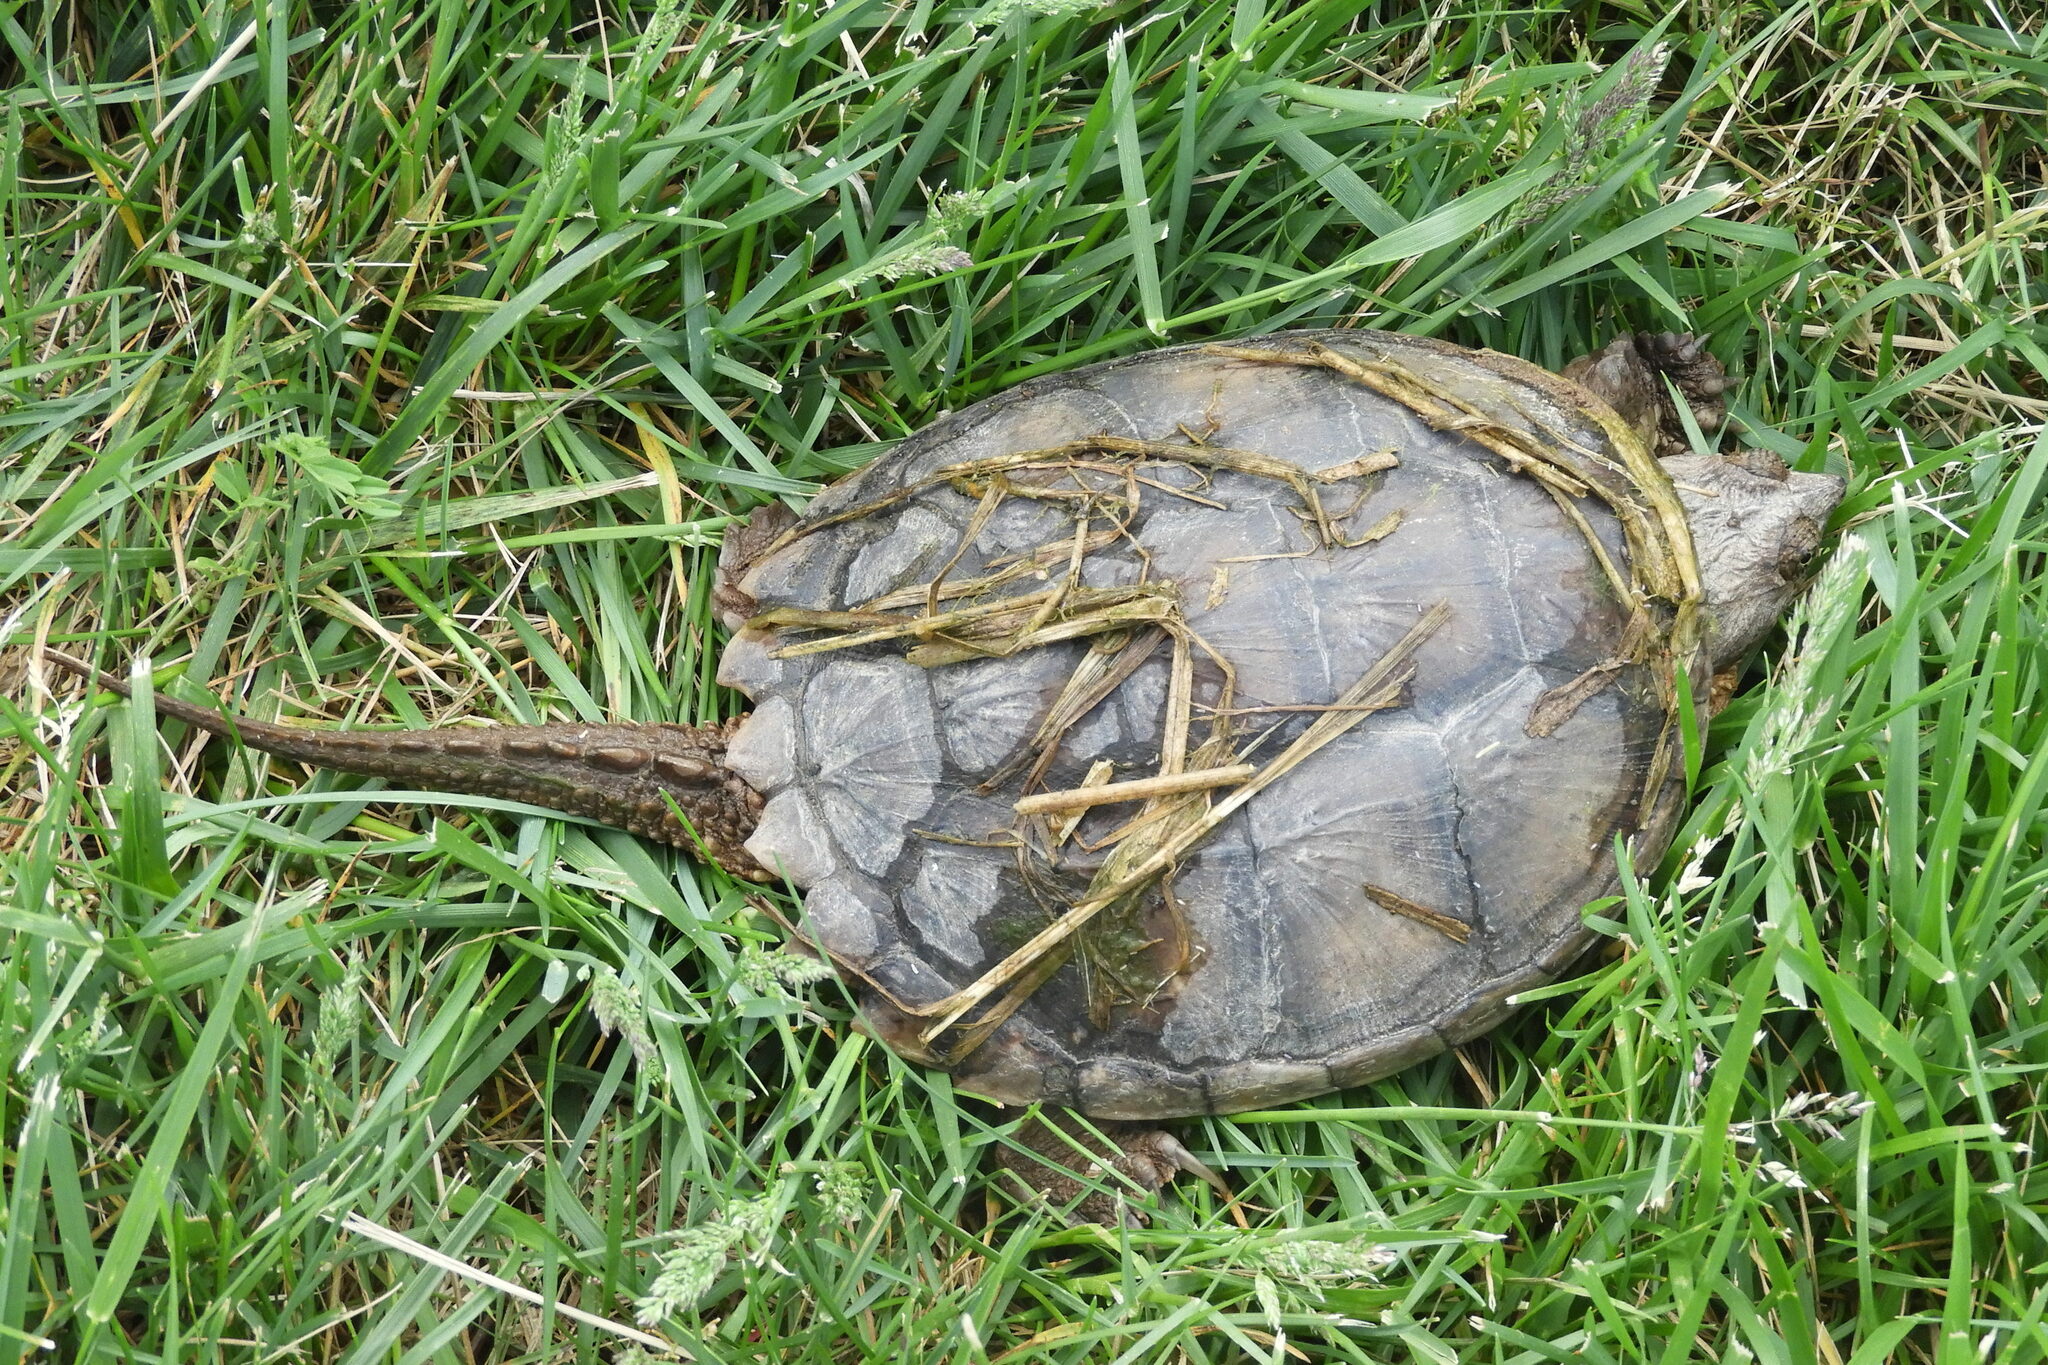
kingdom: Animalia
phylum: Chordata
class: Testudines
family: Chelydridae
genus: Chelydra
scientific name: Chelydra serpentina
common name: Common snapping turtle
